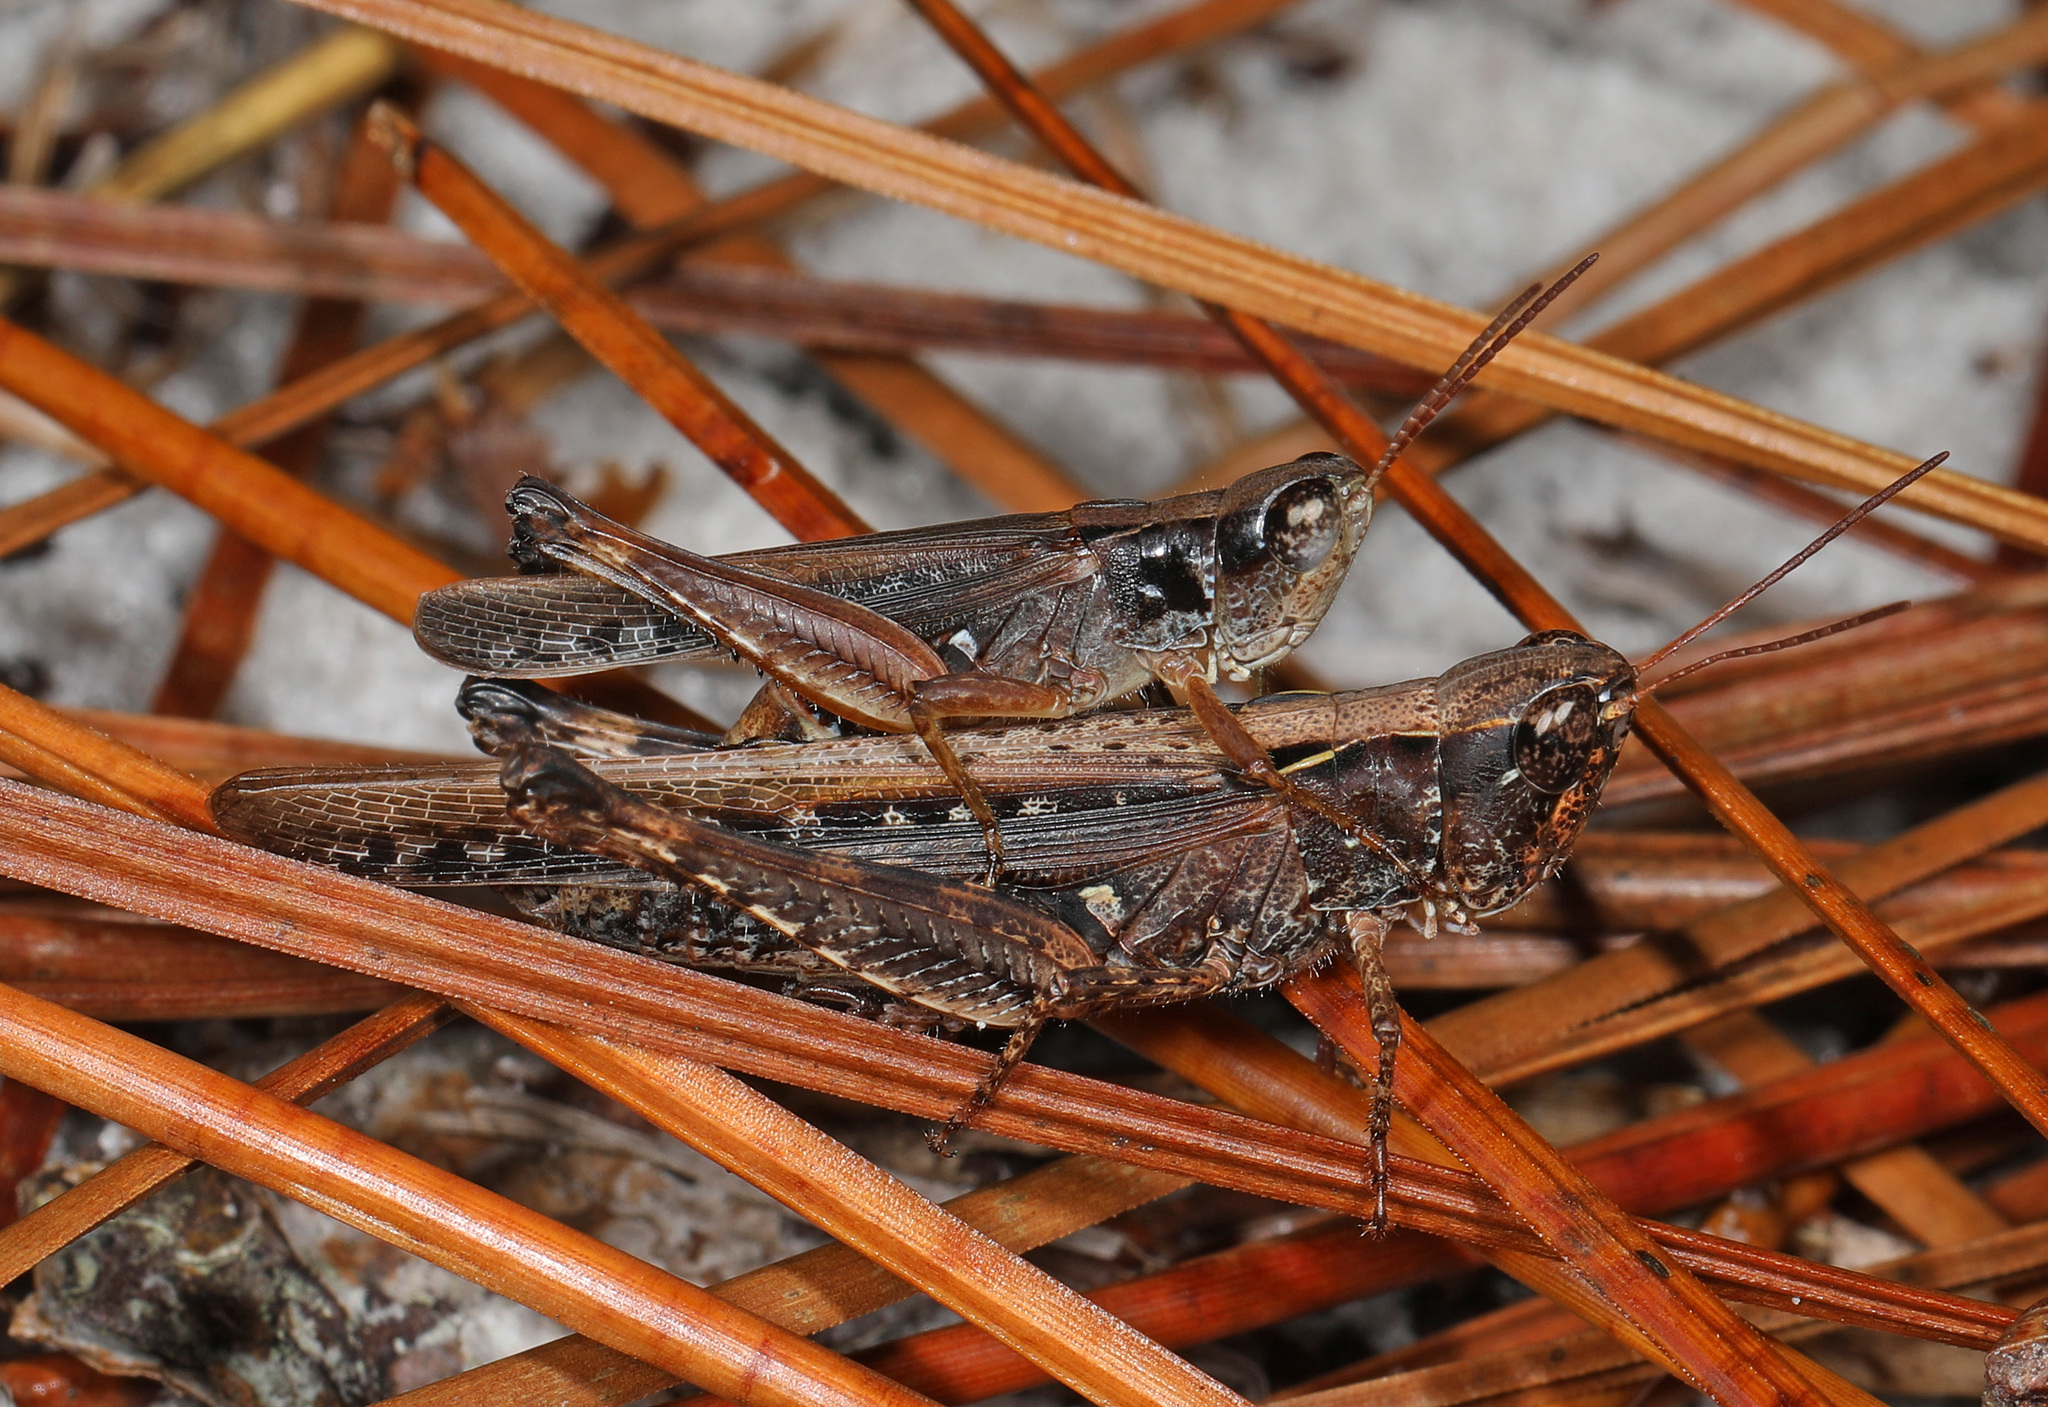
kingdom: Animalia
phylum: Arthropoda
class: Insecta
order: Orthoptera
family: Acrididae
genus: Orphulella
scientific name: Orphulella pelidna
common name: Spotted-wing grasshopper
